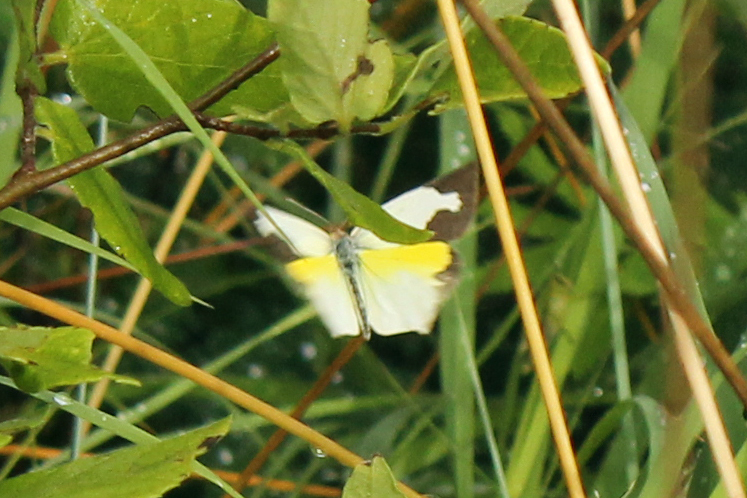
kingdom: Animalia
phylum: Arthropoda
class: Insecta
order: Lepidoptera
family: Pieridae
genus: Abaeis
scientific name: Abaeis mexicana
